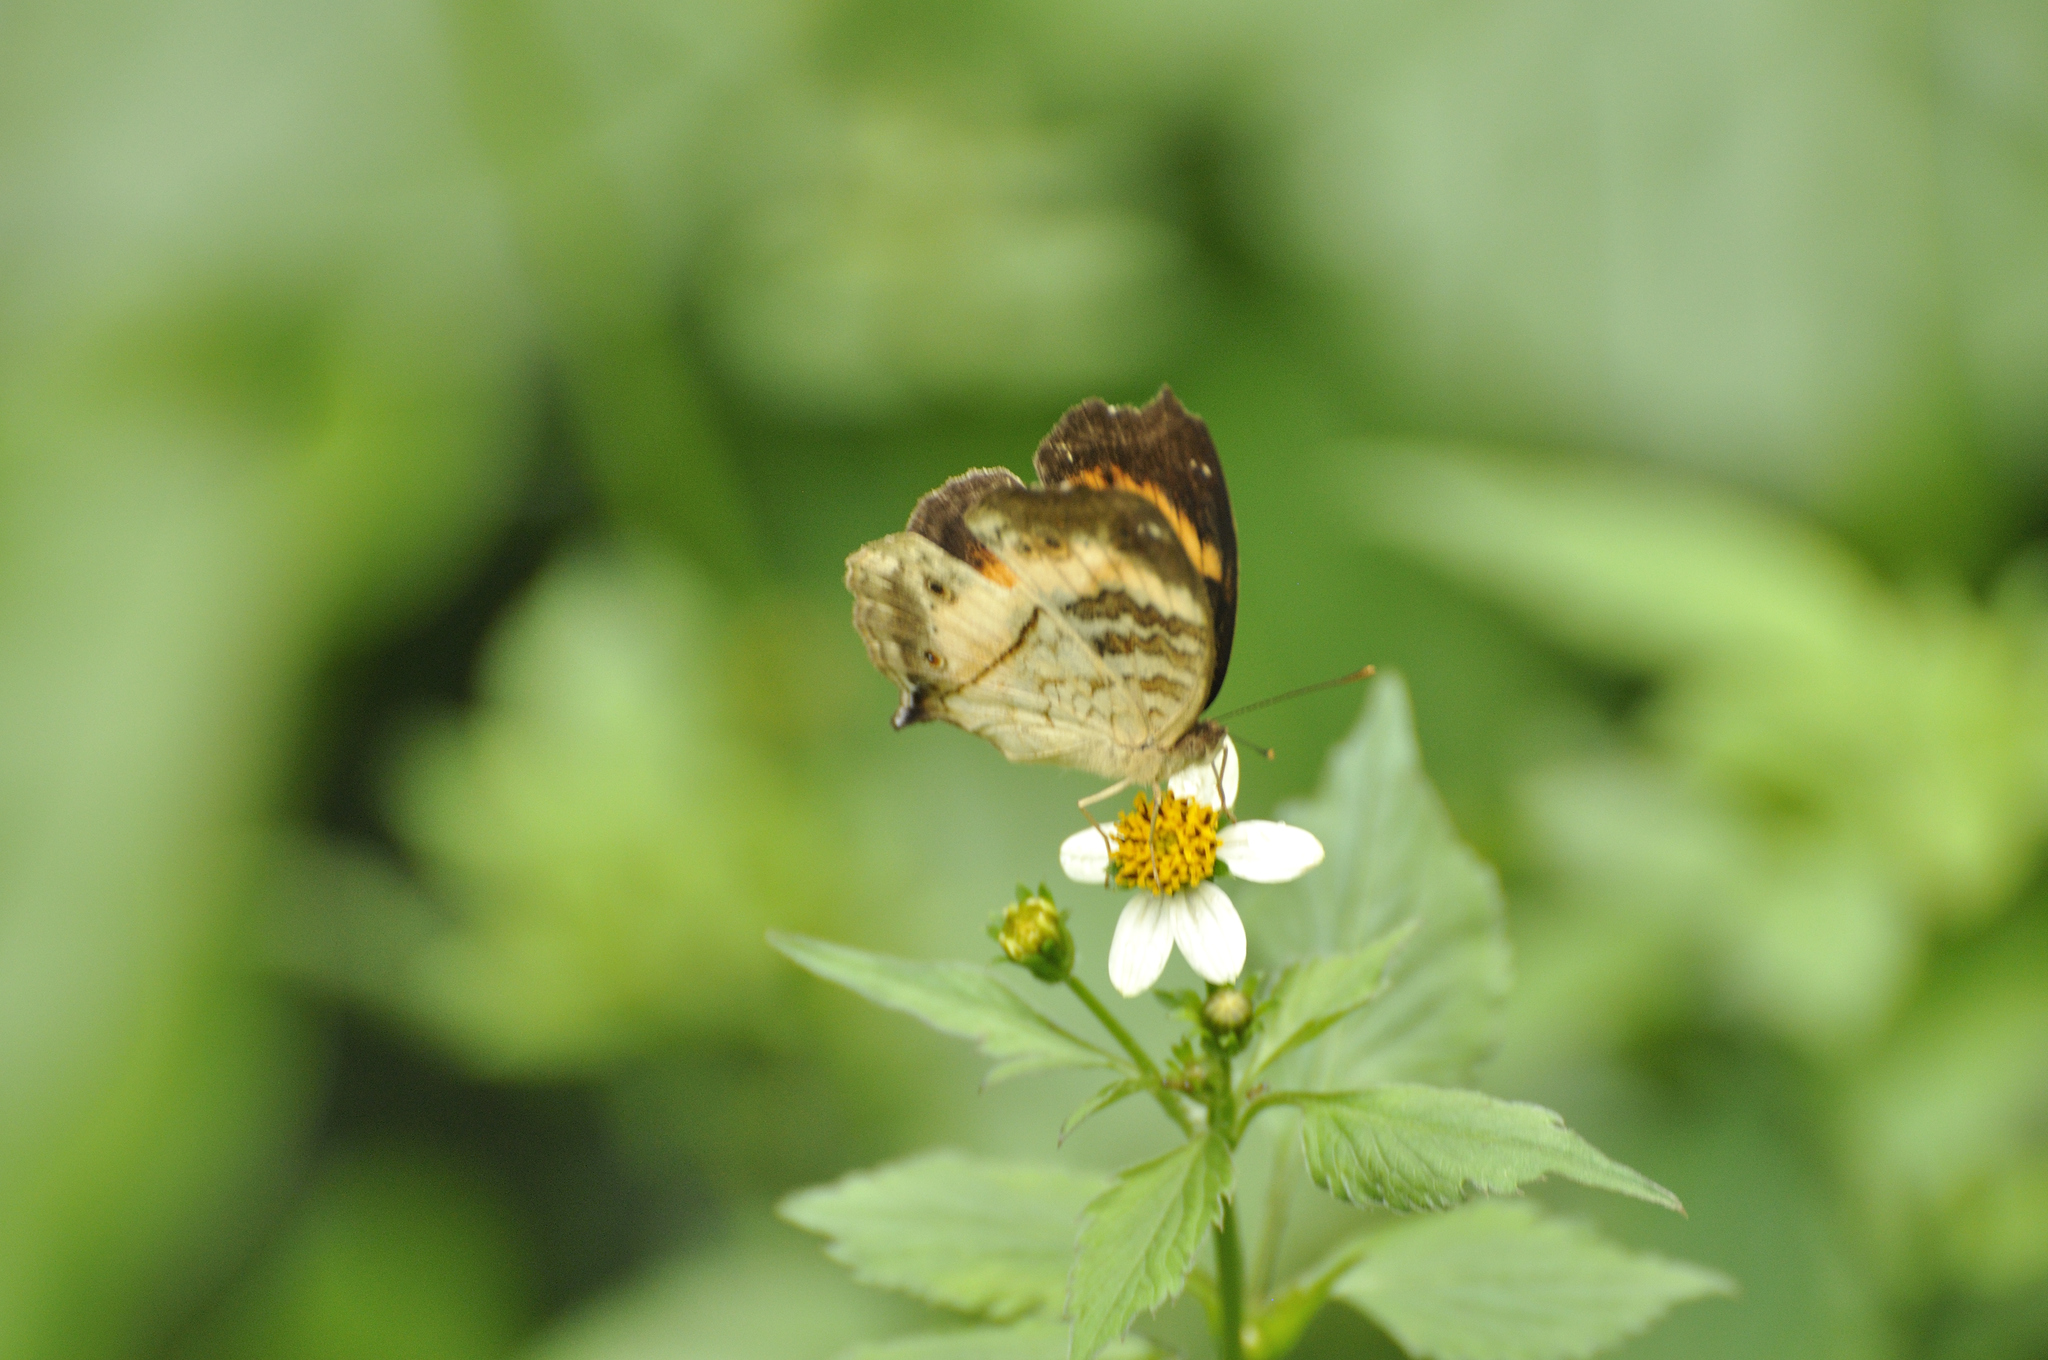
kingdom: Animalia
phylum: Arthropoda
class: Insecta
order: Lepidoptera
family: Nymphalidae
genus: Junonia
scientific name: Junonia terea
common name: Soldier pansy
